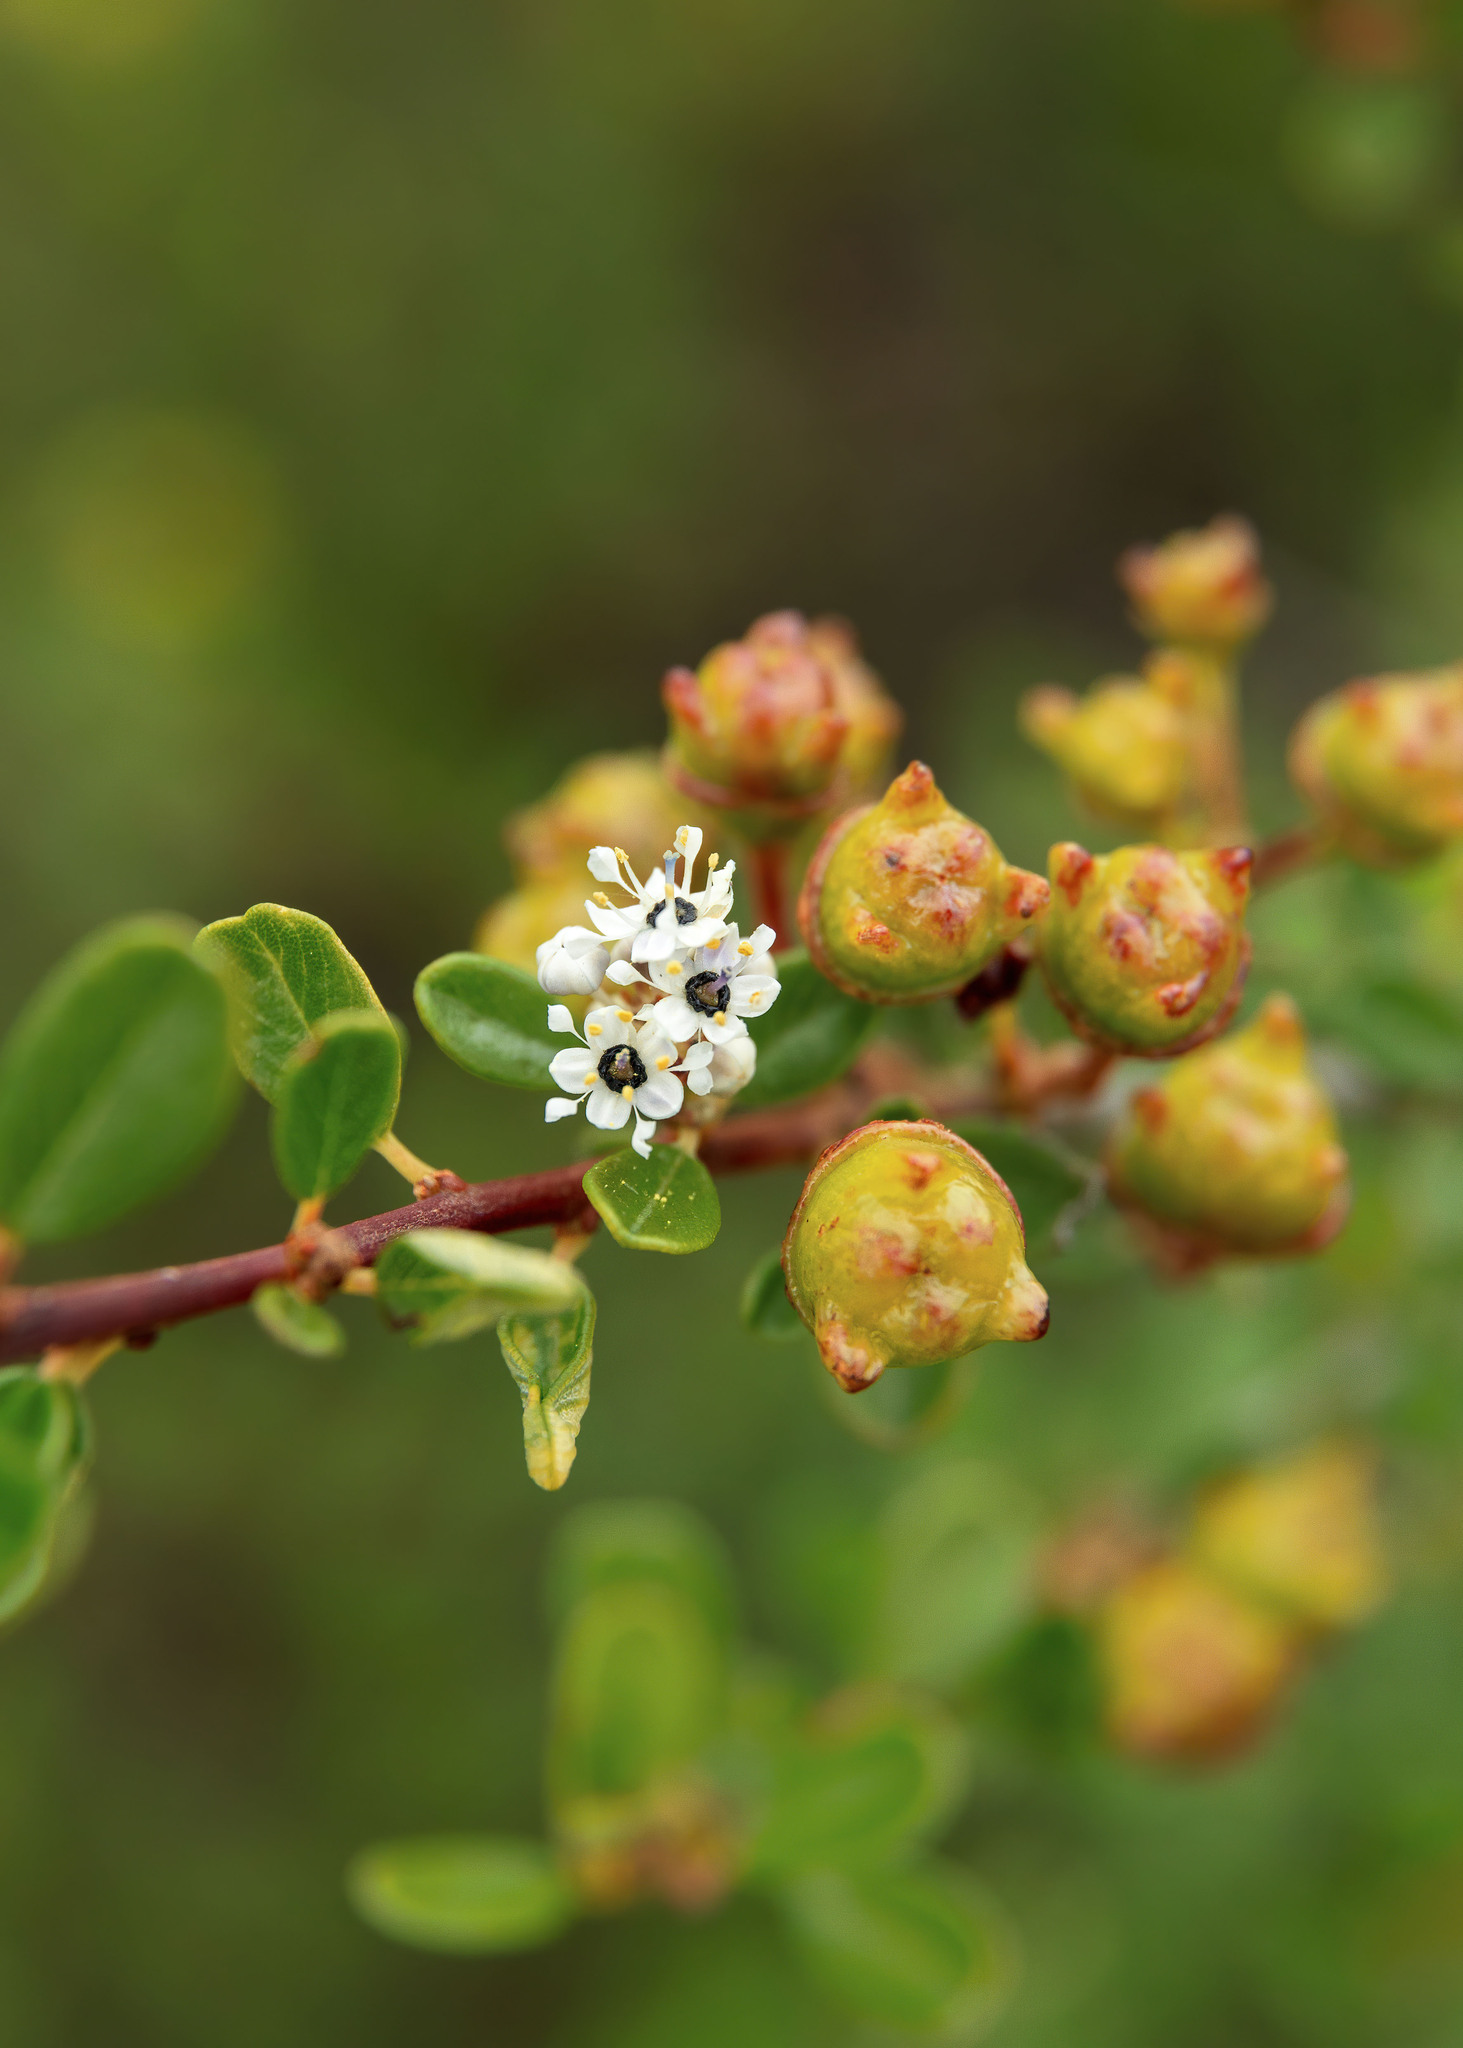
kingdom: Plantae
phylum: Tracheophyta
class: Magnoliopsida
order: Rosales
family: Rhamnaceae
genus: Ceanothus
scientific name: Ceanothus megacarpus
